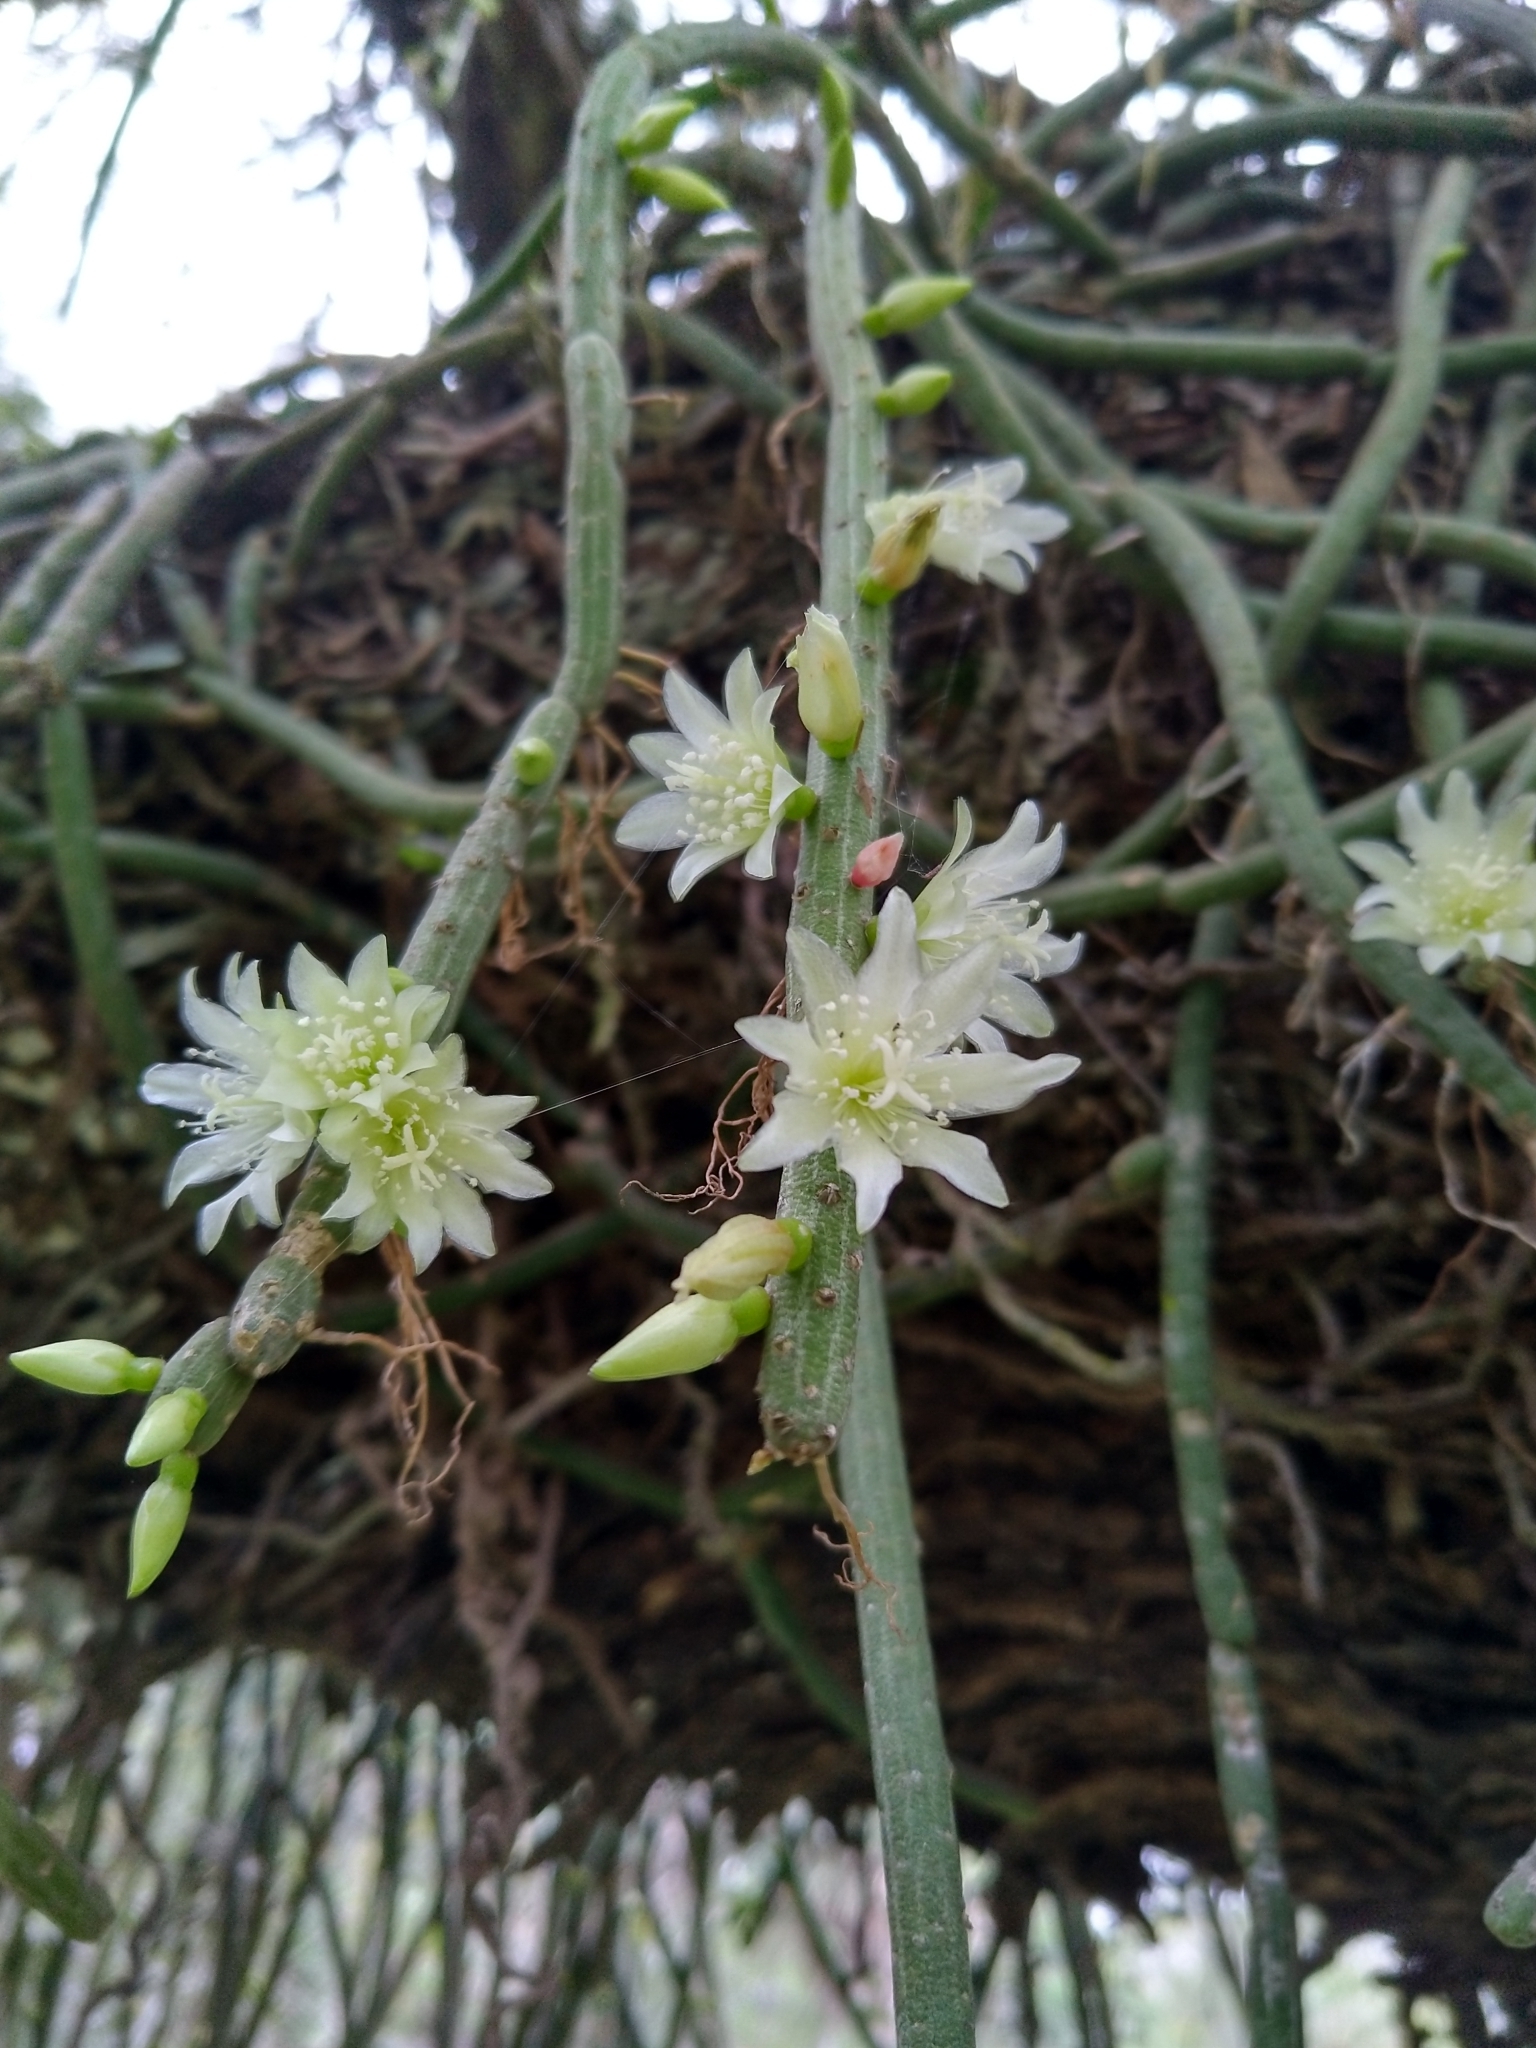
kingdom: Plantae
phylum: Tracheophyta
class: Magnoliopsida
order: Caryophyllales
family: Cactaceae
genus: Lepismium
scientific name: Lepismium lumbricoides
